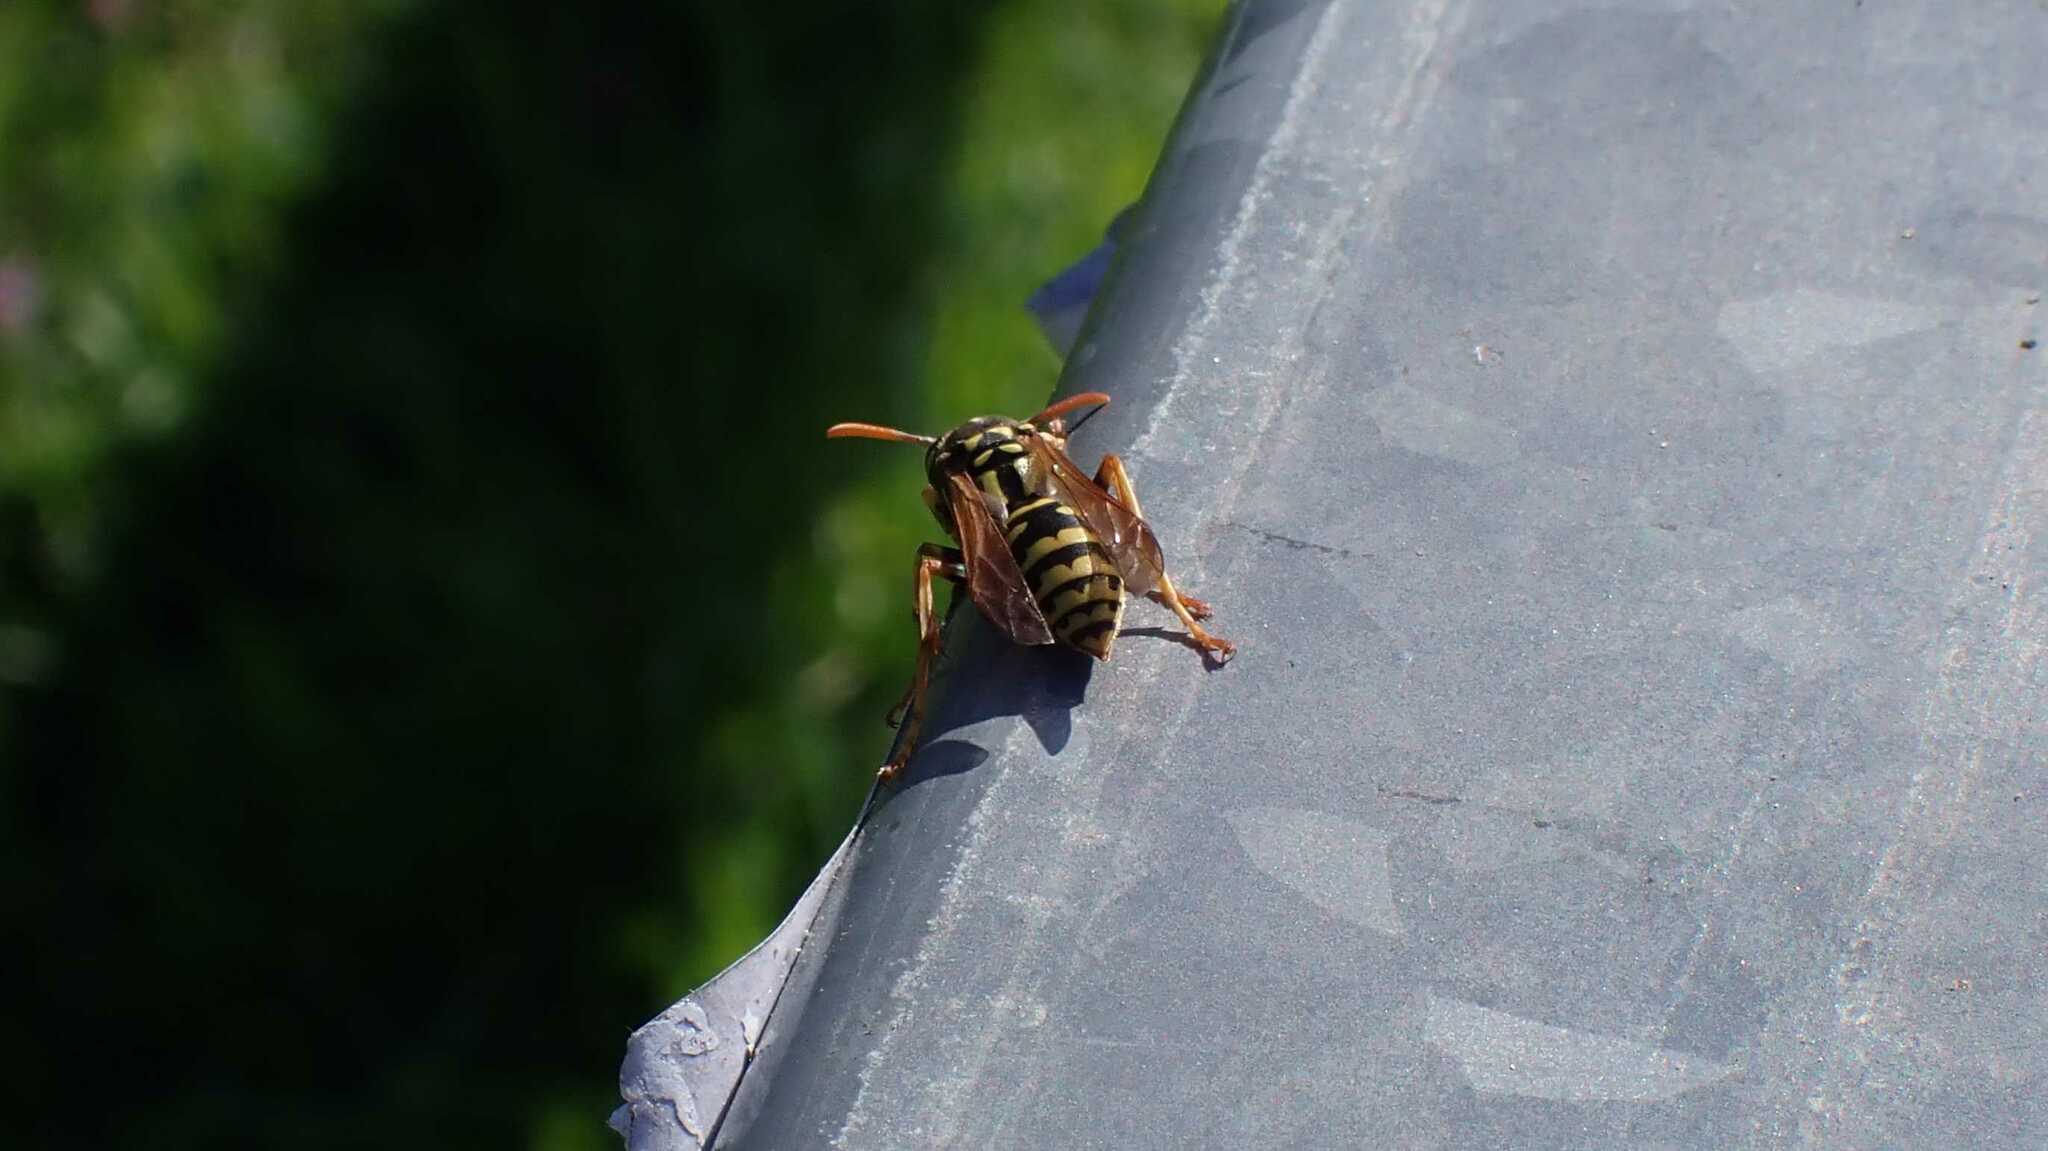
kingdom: Animalia
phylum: Arthropoda
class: Insecta
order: Hymenoptera
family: Eumenidae
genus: Polistes
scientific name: Polistes dominula
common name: Paper wasp
